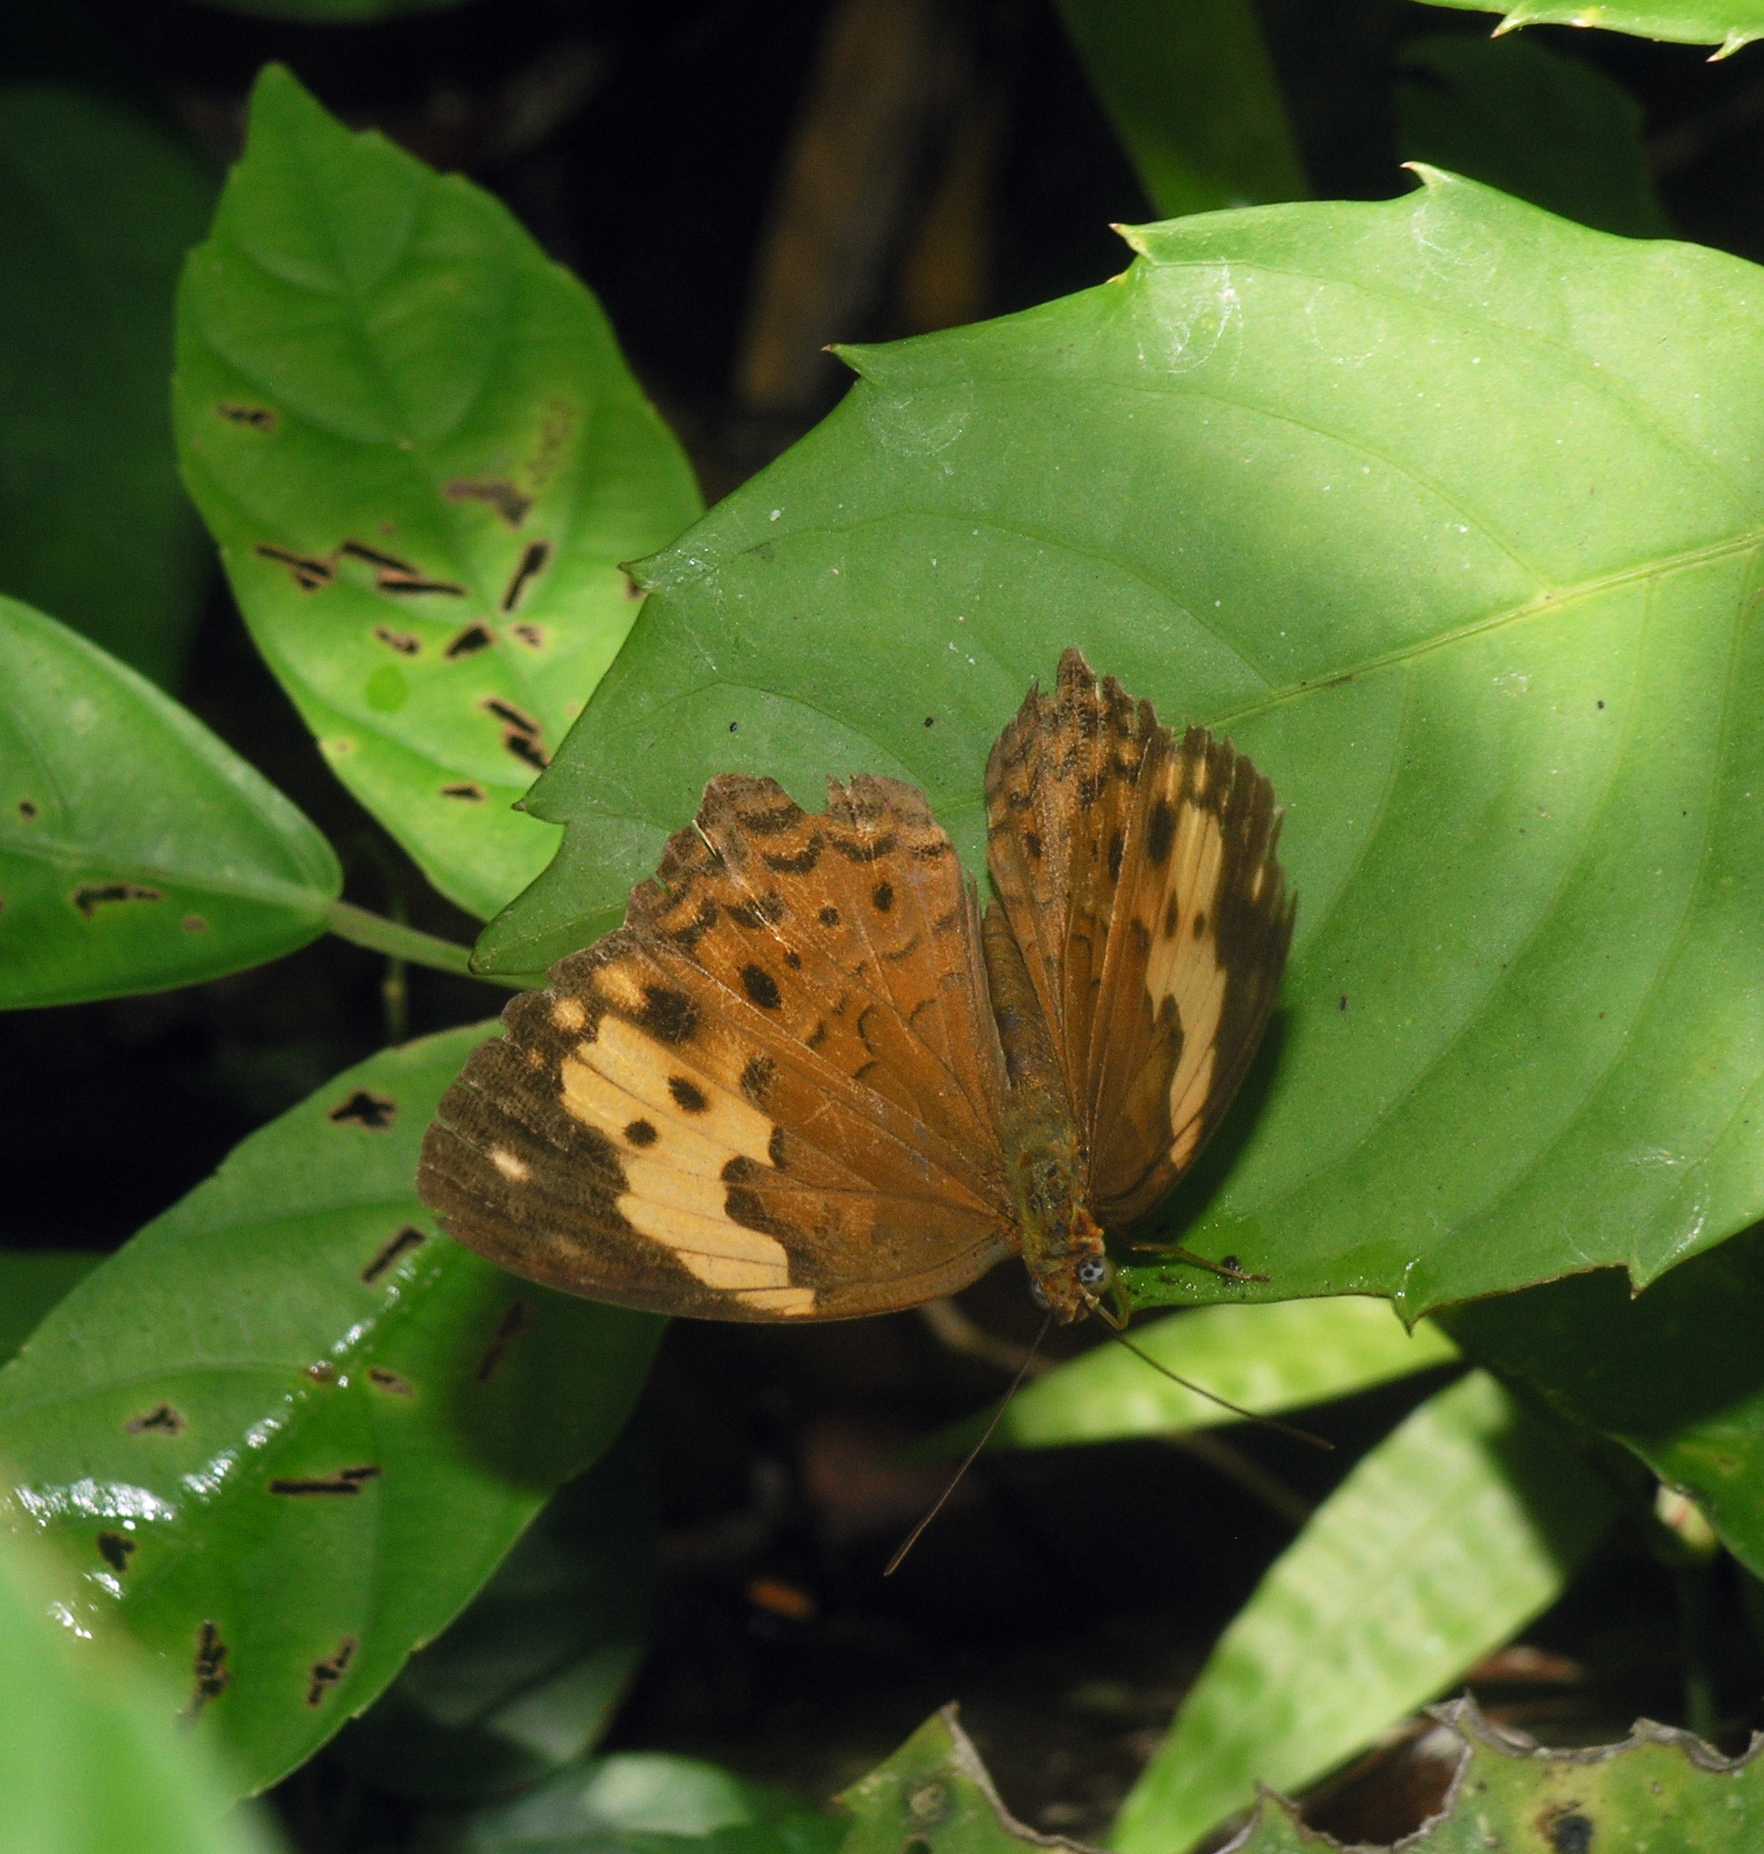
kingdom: Animalia
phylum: Arthropoda
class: Insecta
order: Lepidoptera
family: Nymphalidae
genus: Cupha
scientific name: Cupha erymanthis
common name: Rustic
